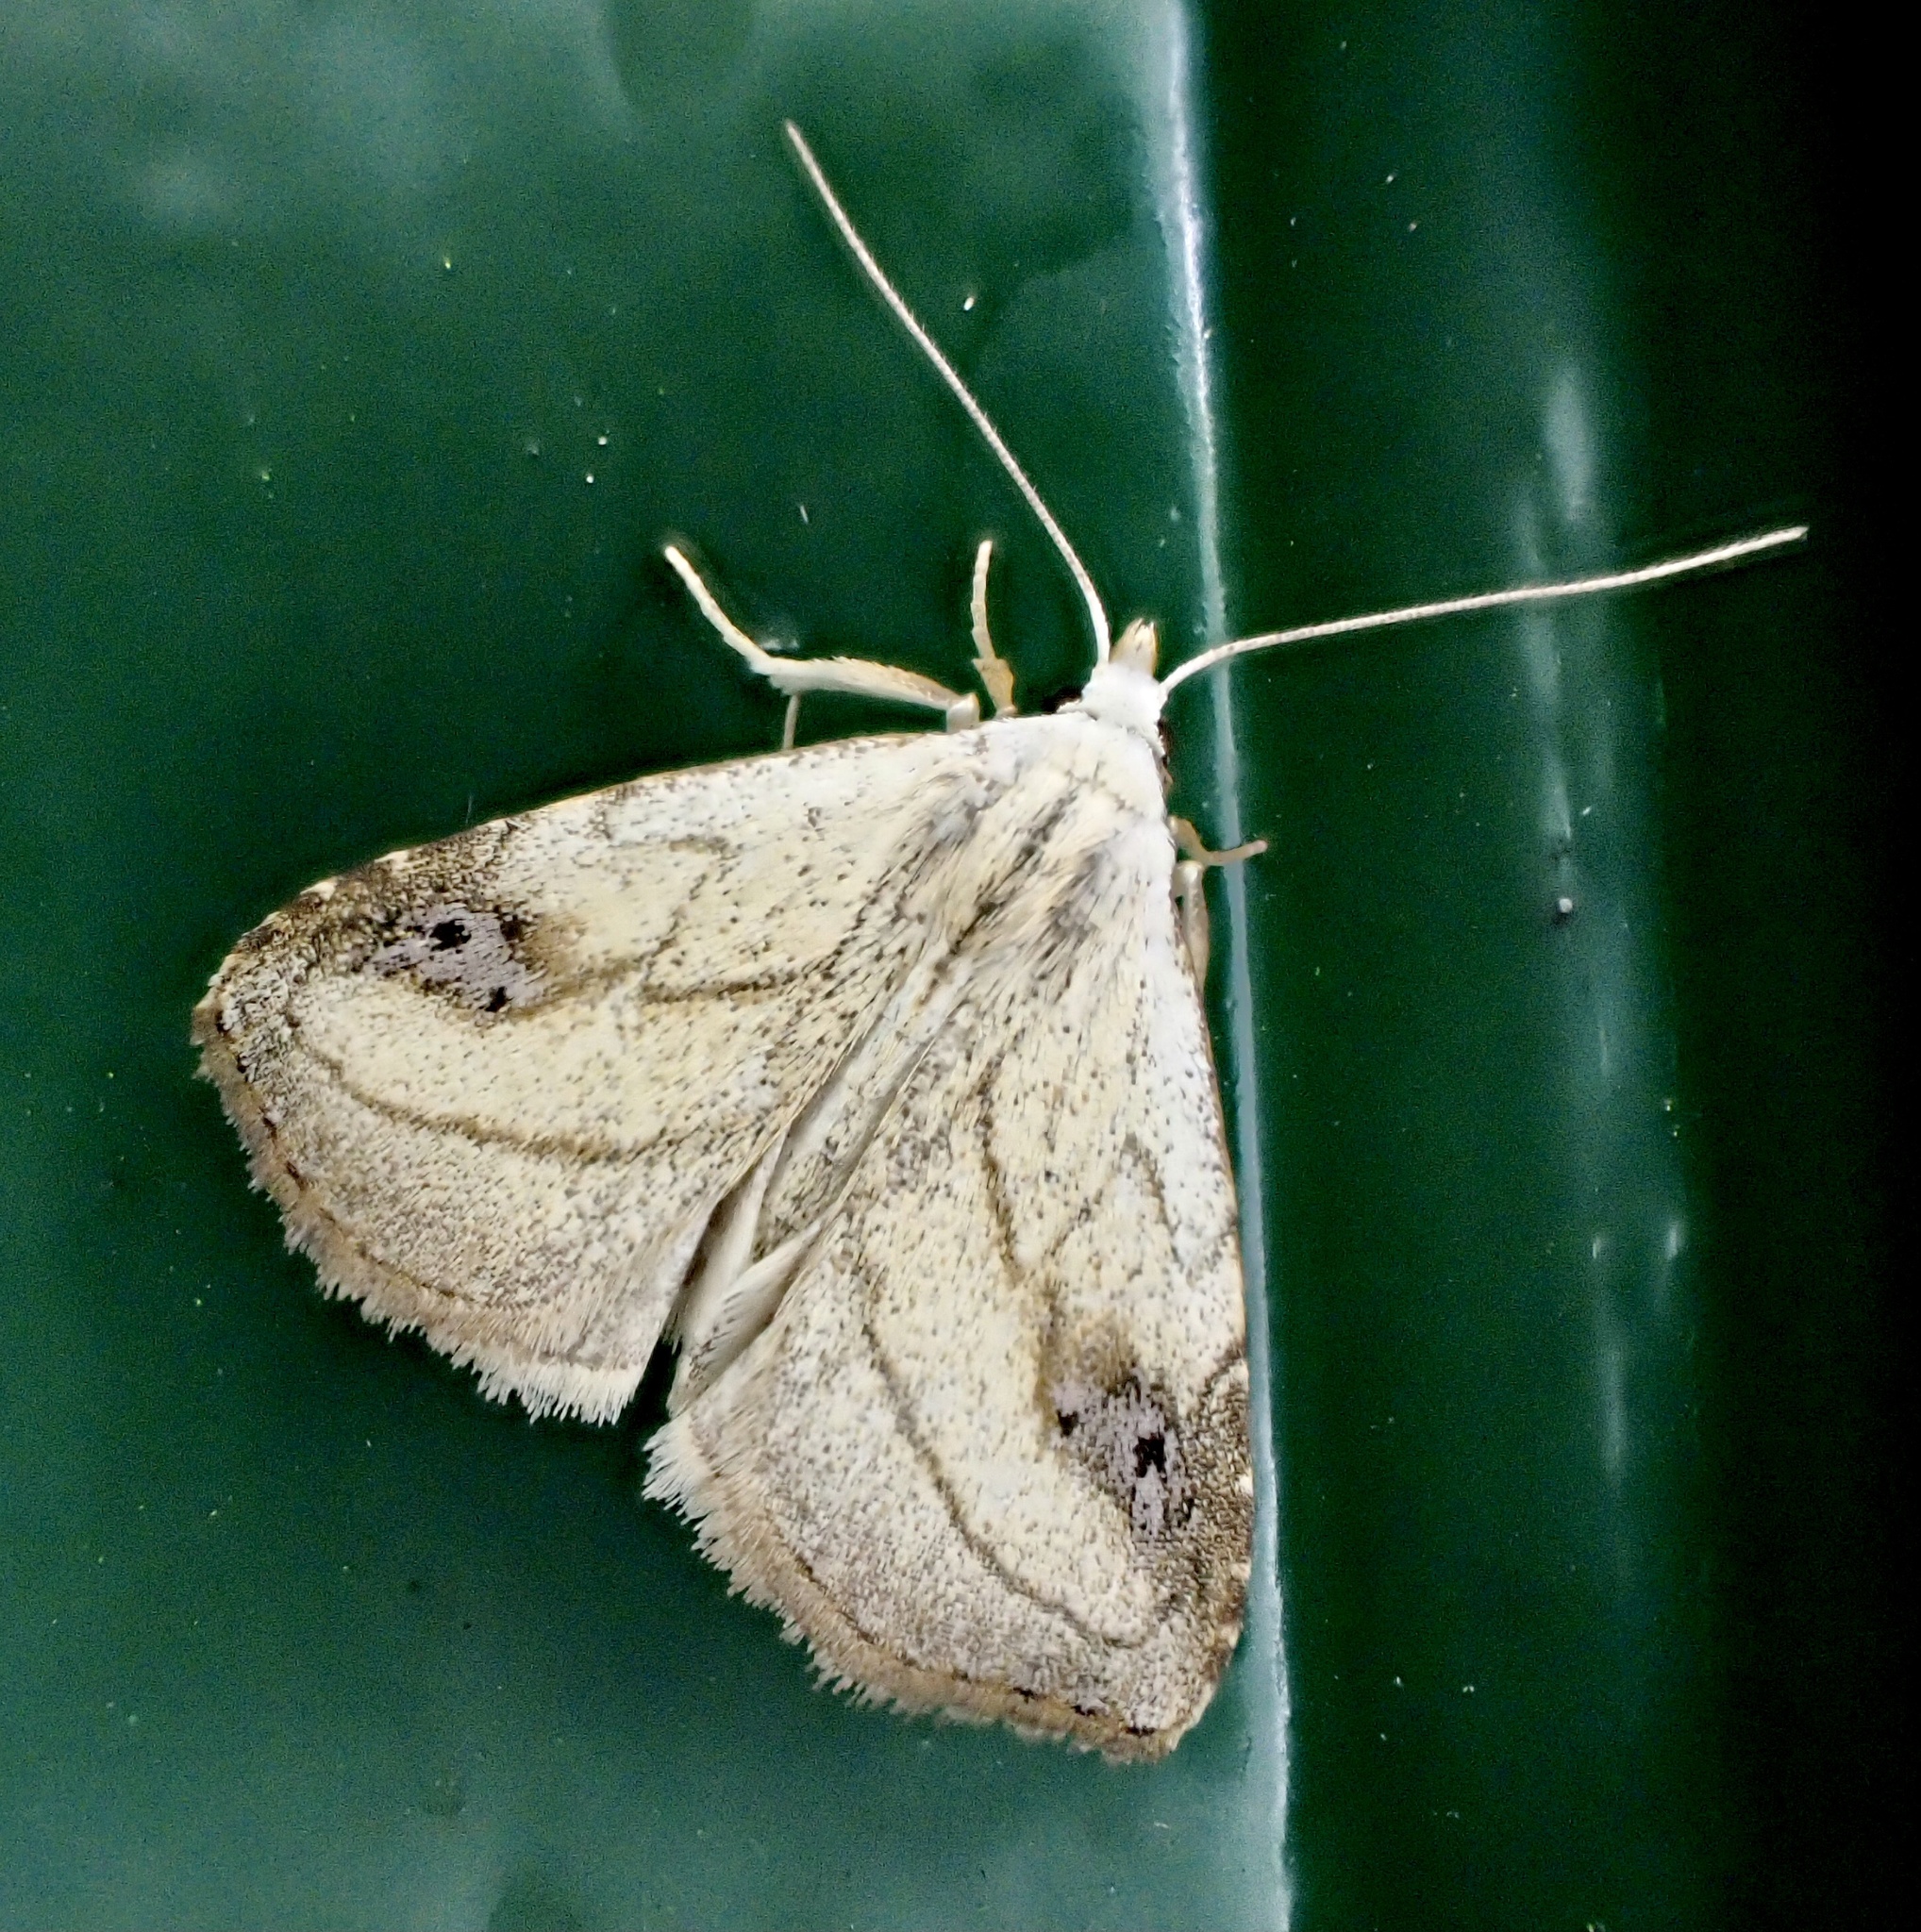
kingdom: Animalia
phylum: Arthropoda
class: Insecta
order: Lepidoptera
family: Erebidae
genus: Rivula
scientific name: Rivula propinqualis
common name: Spotted grass moth
